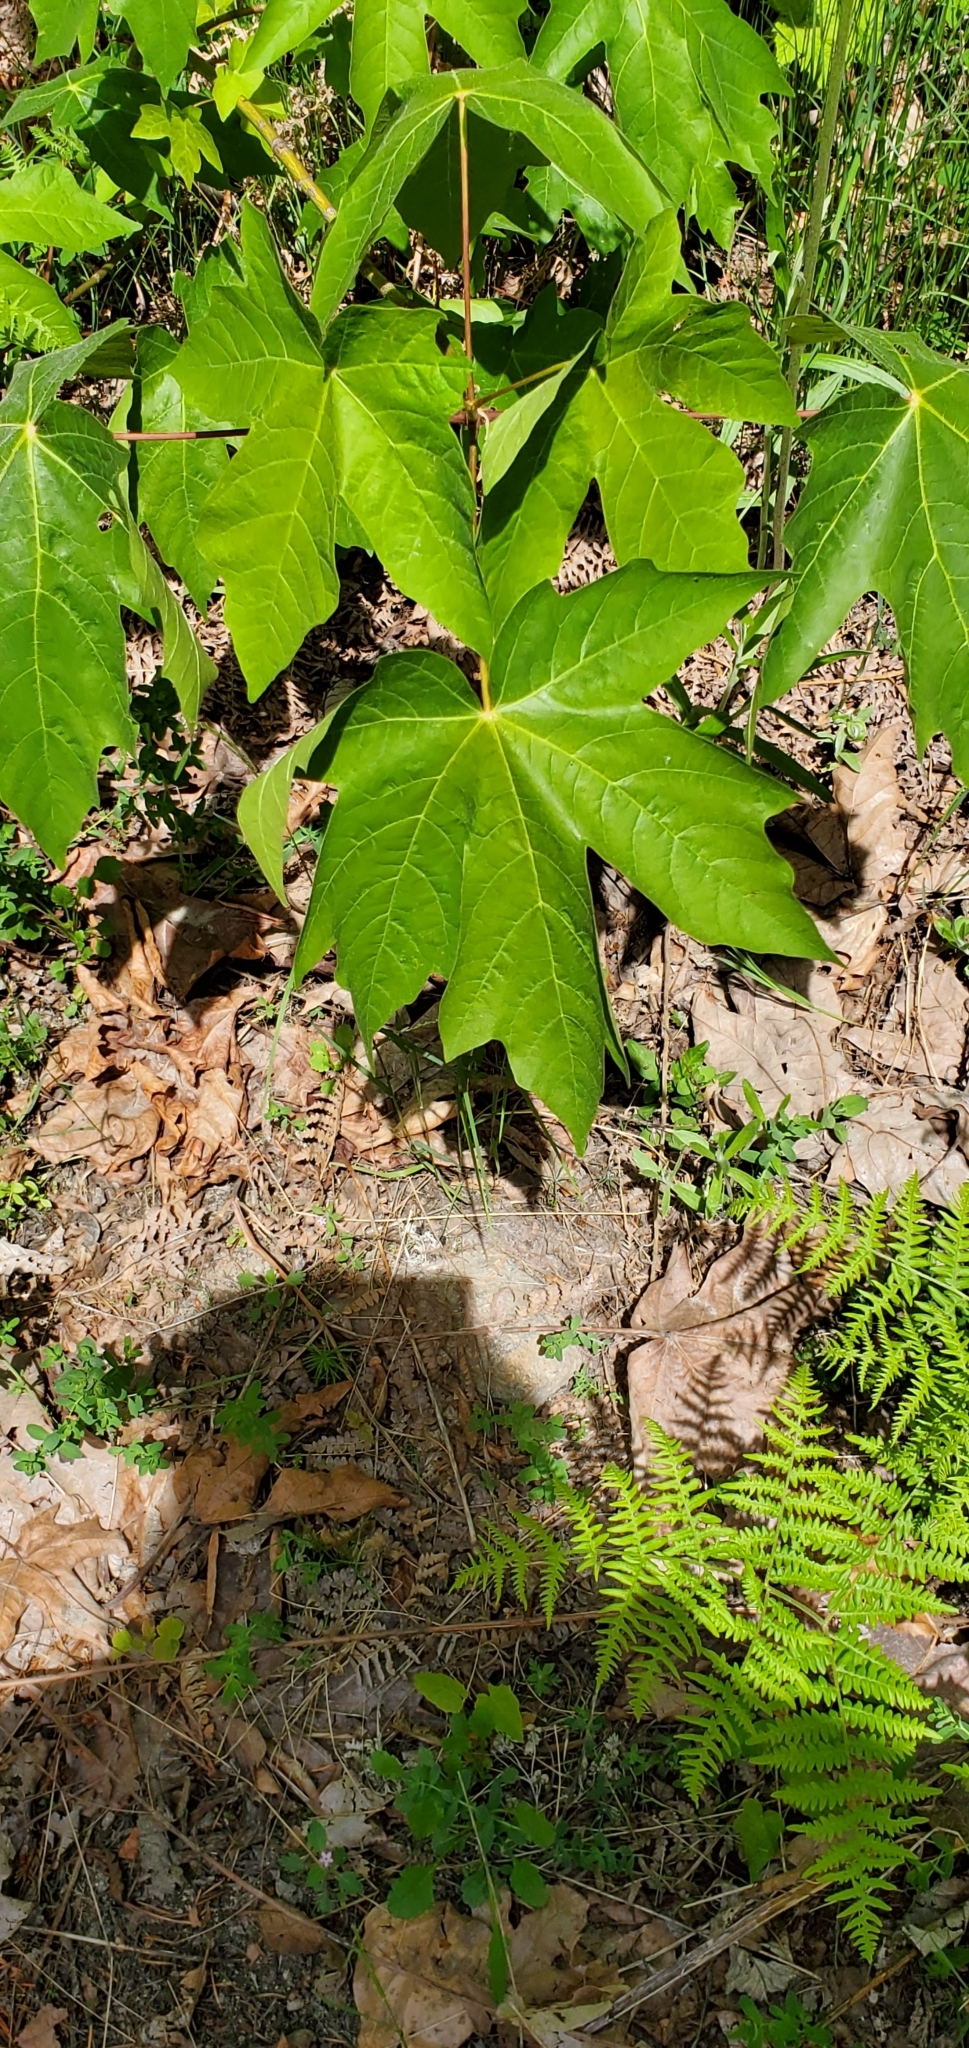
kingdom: Plantae
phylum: Tracheophyta
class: Magnoliopsida
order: Sapindales
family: Sapindaceae
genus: Acer
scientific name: Acer macrophyllum
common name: Oregon maple
